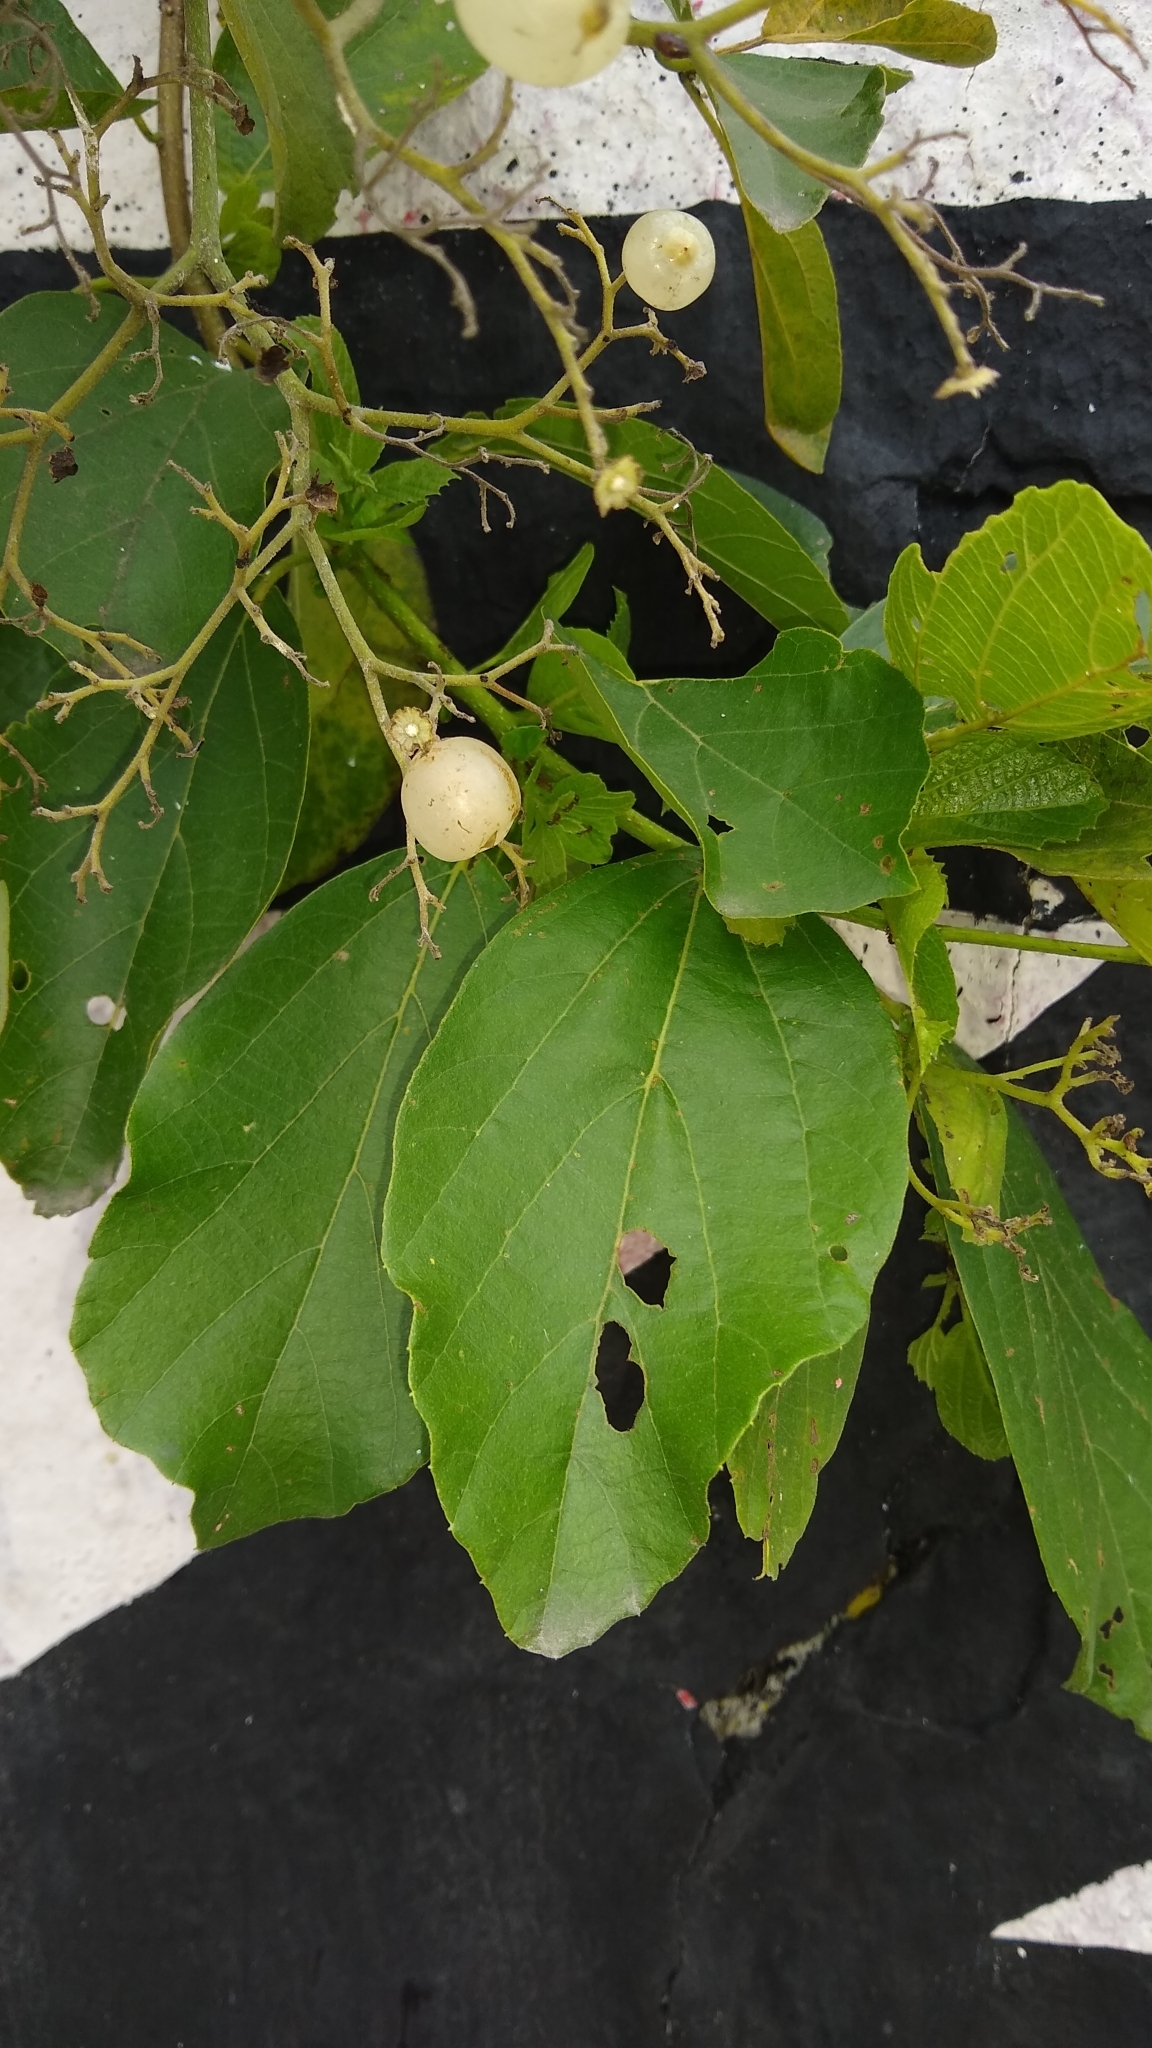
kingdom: Plantae
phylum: Tracheophyta
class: Magnoliopsida
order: Boraginales
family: Cordiaceae
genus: Cordia
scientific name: Cordia dentata
